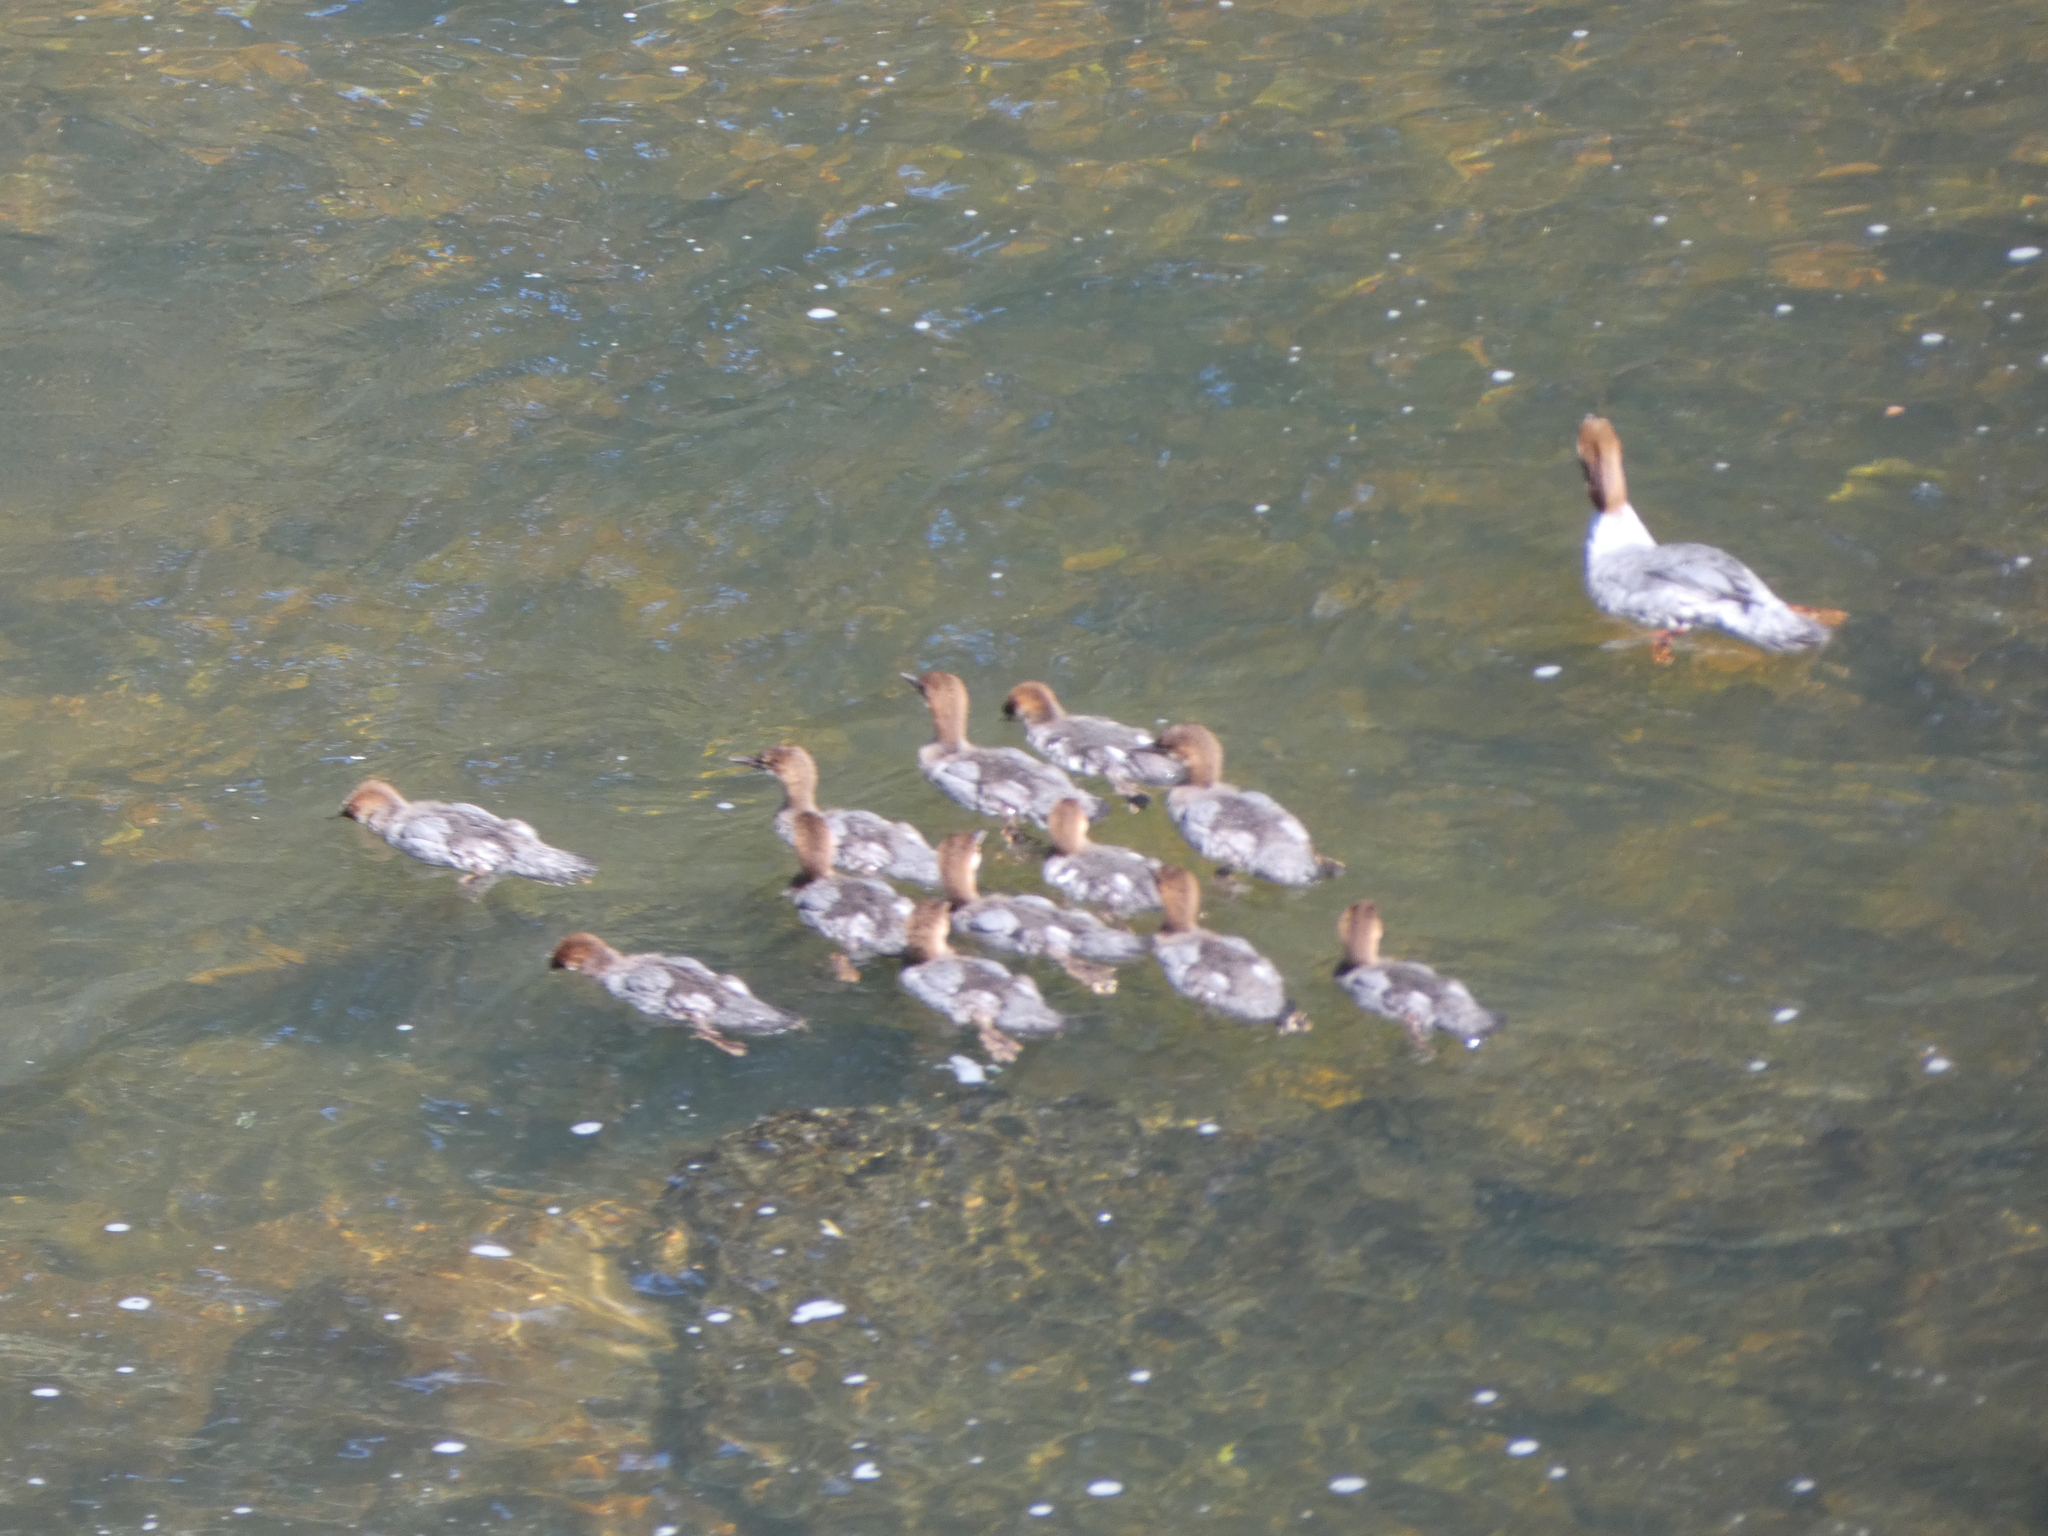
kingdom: Animalia
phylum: Chordata
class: Aves
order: Anseriformes
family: Anatidae
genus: Mergus
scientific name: Mergus merganser
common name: Common merganser
